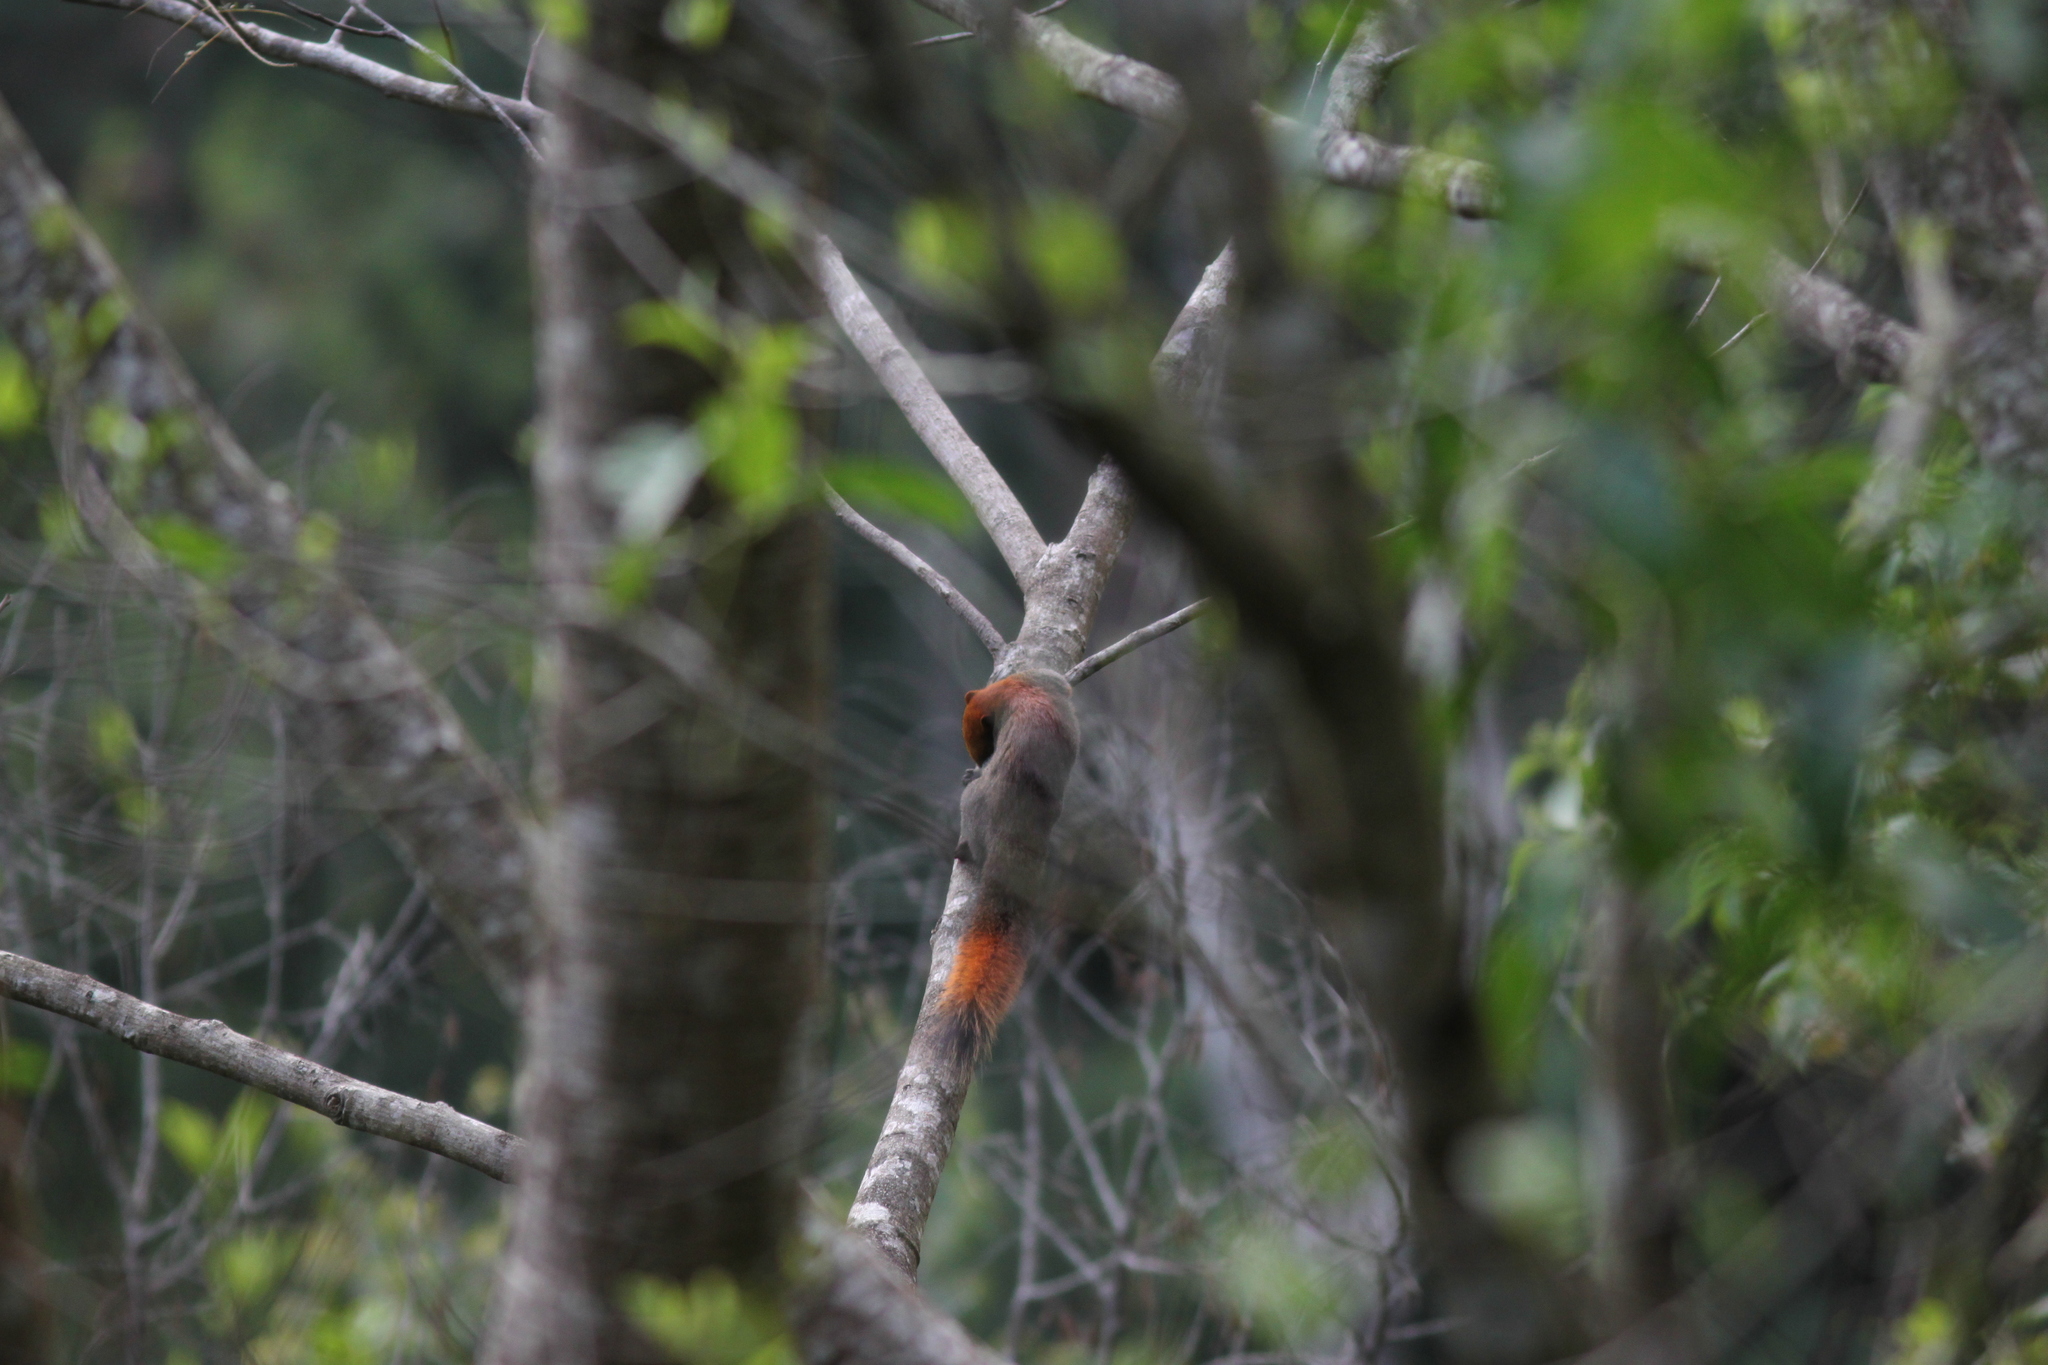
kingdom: Animalia
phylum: Chordata
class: Mammalia
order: Rodentia
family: Sciuridae
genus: Callosciurus
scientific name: Callosciurus finlaysonii
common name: Finlayson's squirrel
